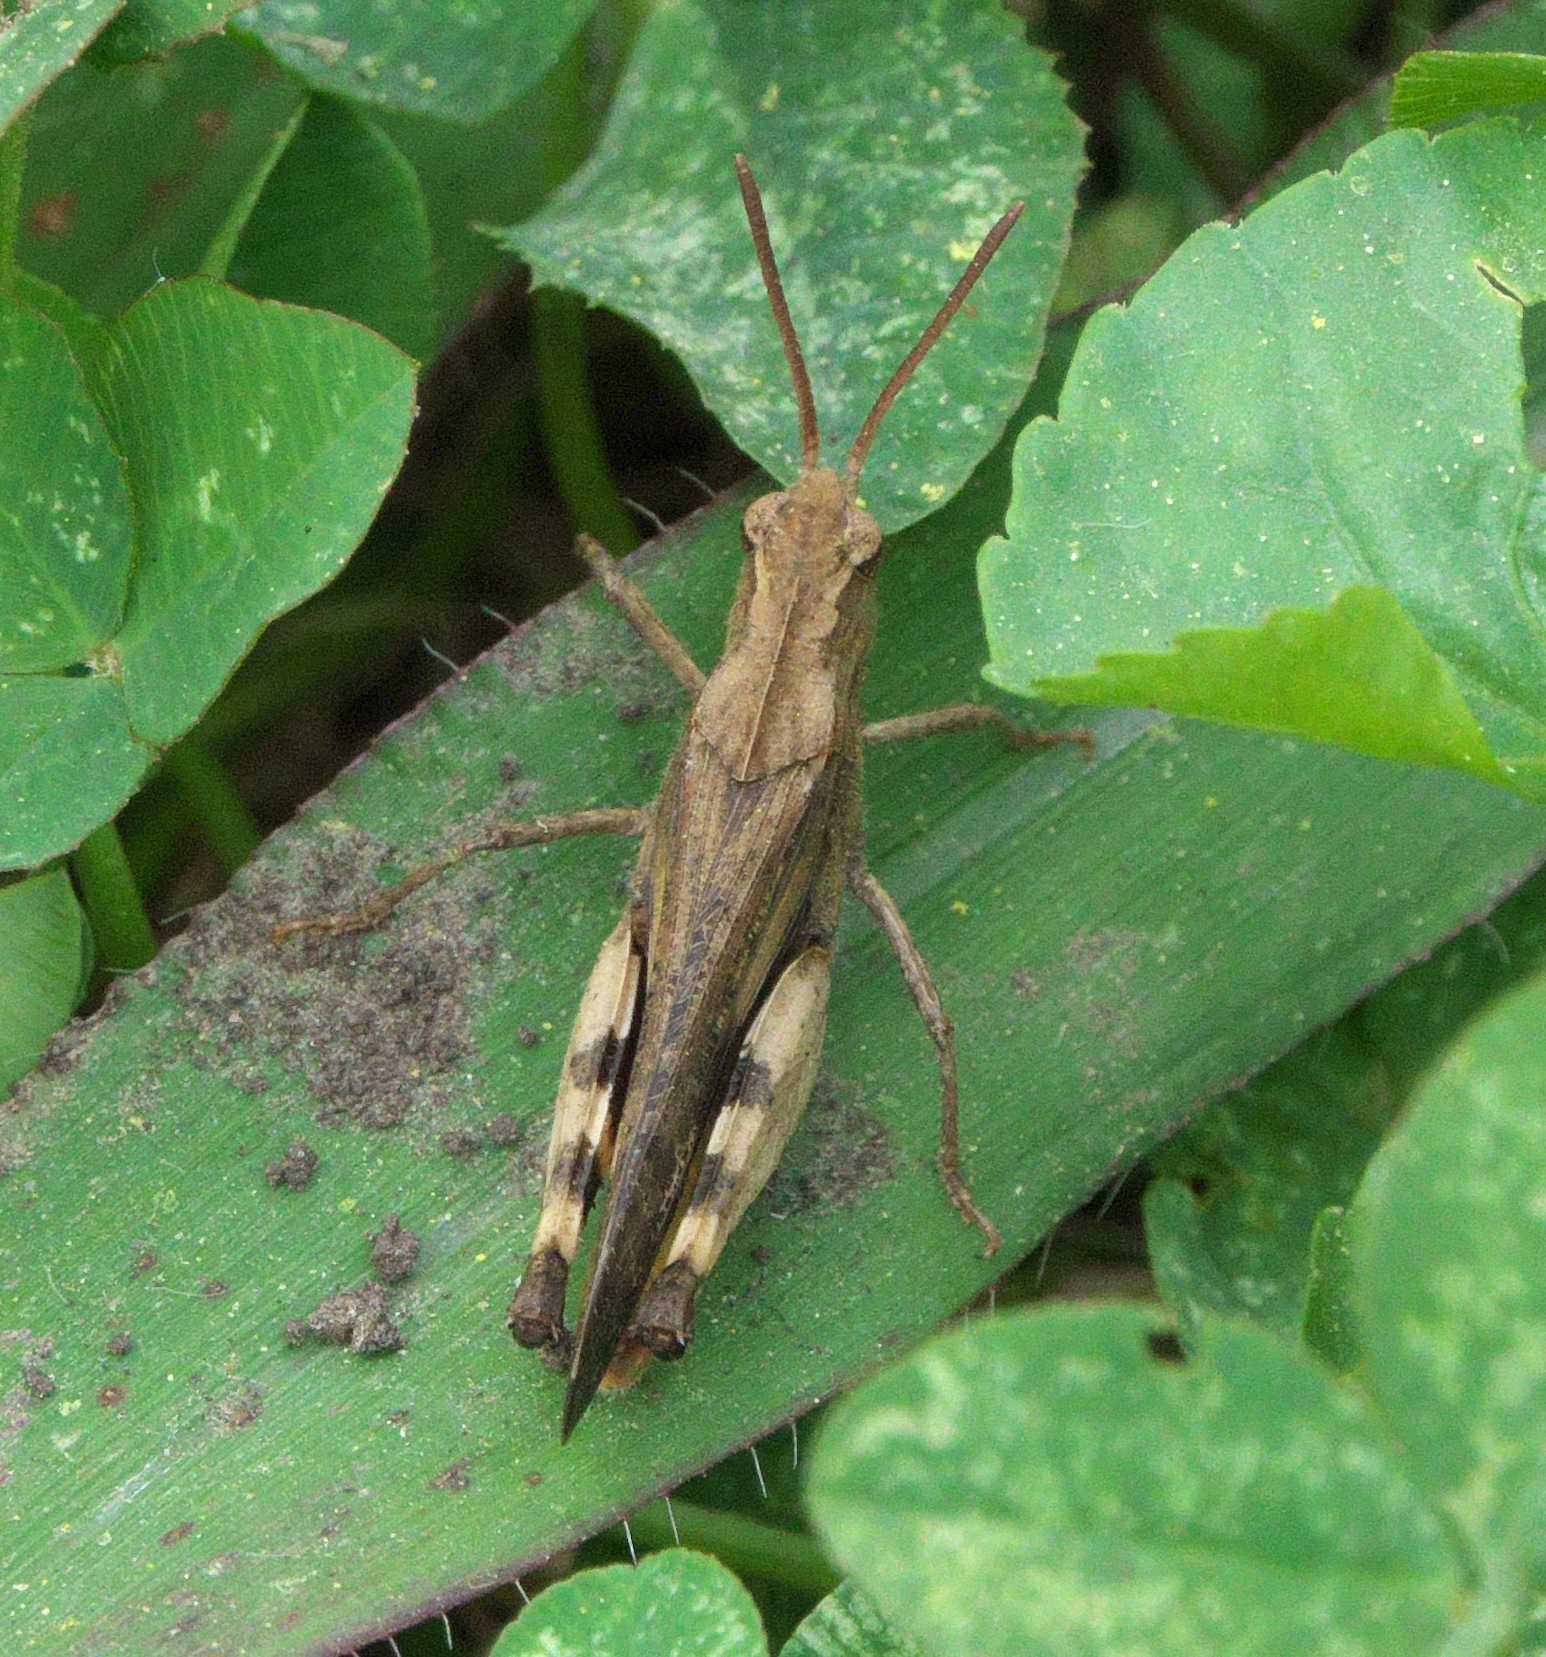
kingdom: Animalia
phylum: Arthropoda
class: Insecta
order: Orthoptera
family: Acrididae
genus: Chortophaga
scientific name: Chortophaga viridifasciata
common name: Green-striped grasshopper
